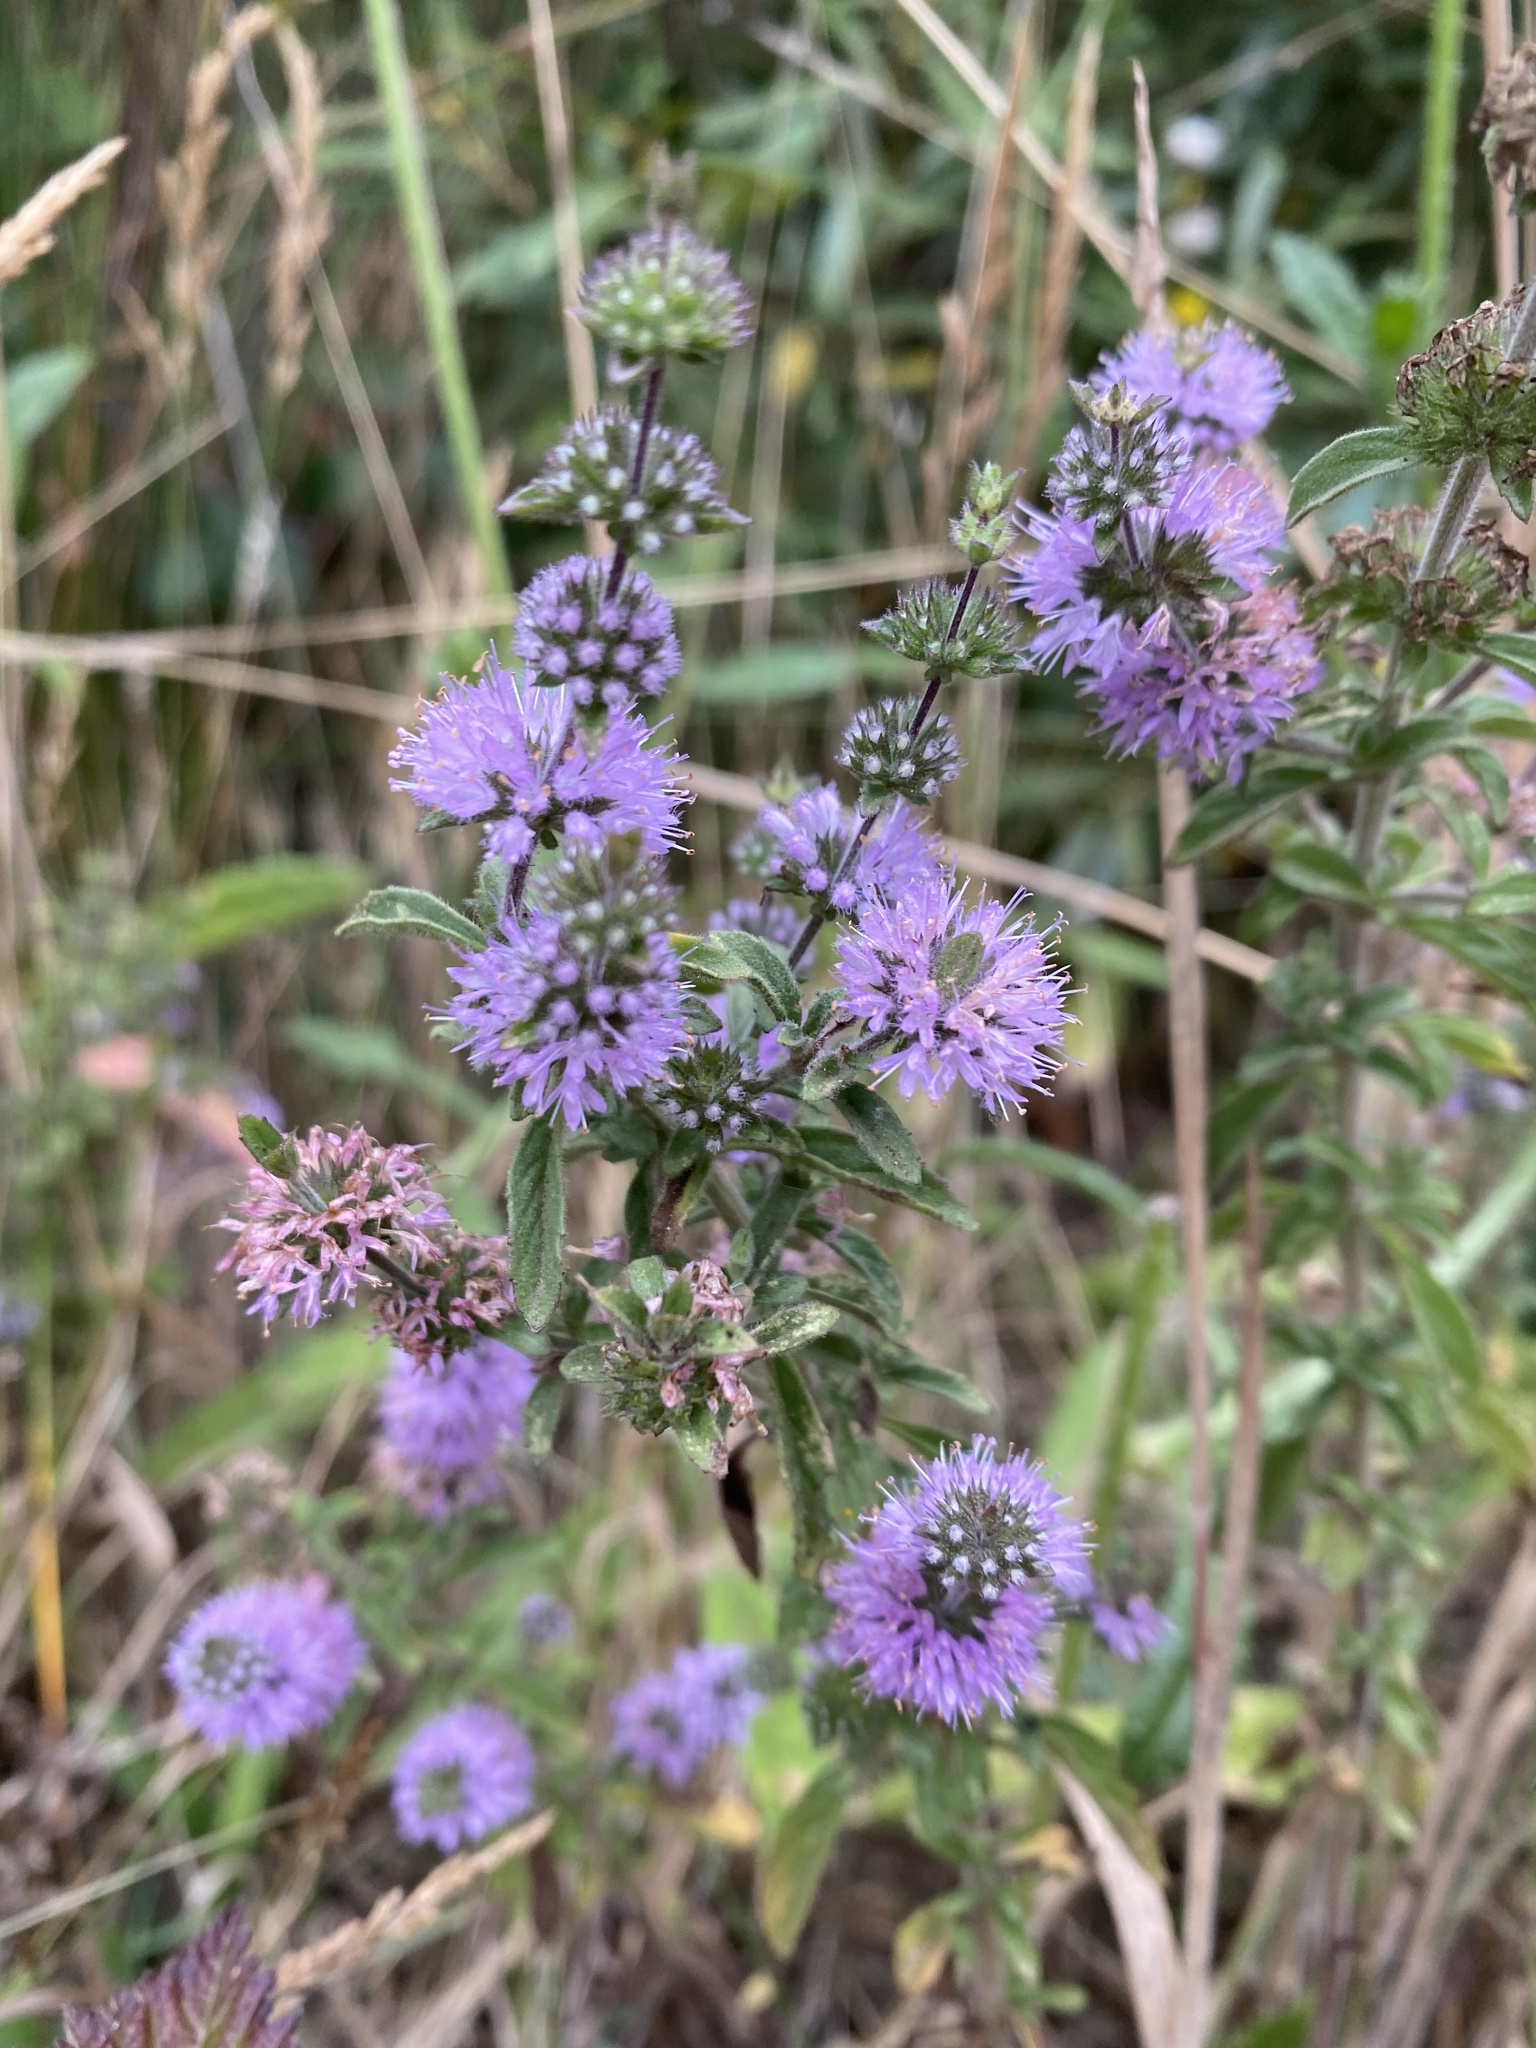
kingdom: Plantae
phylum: Tracheophyta
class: Magnoliopsida
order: Lamiales
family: Lamiaceae
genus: Mentha
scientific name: Mentha pulegium
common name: Pennyroyal
